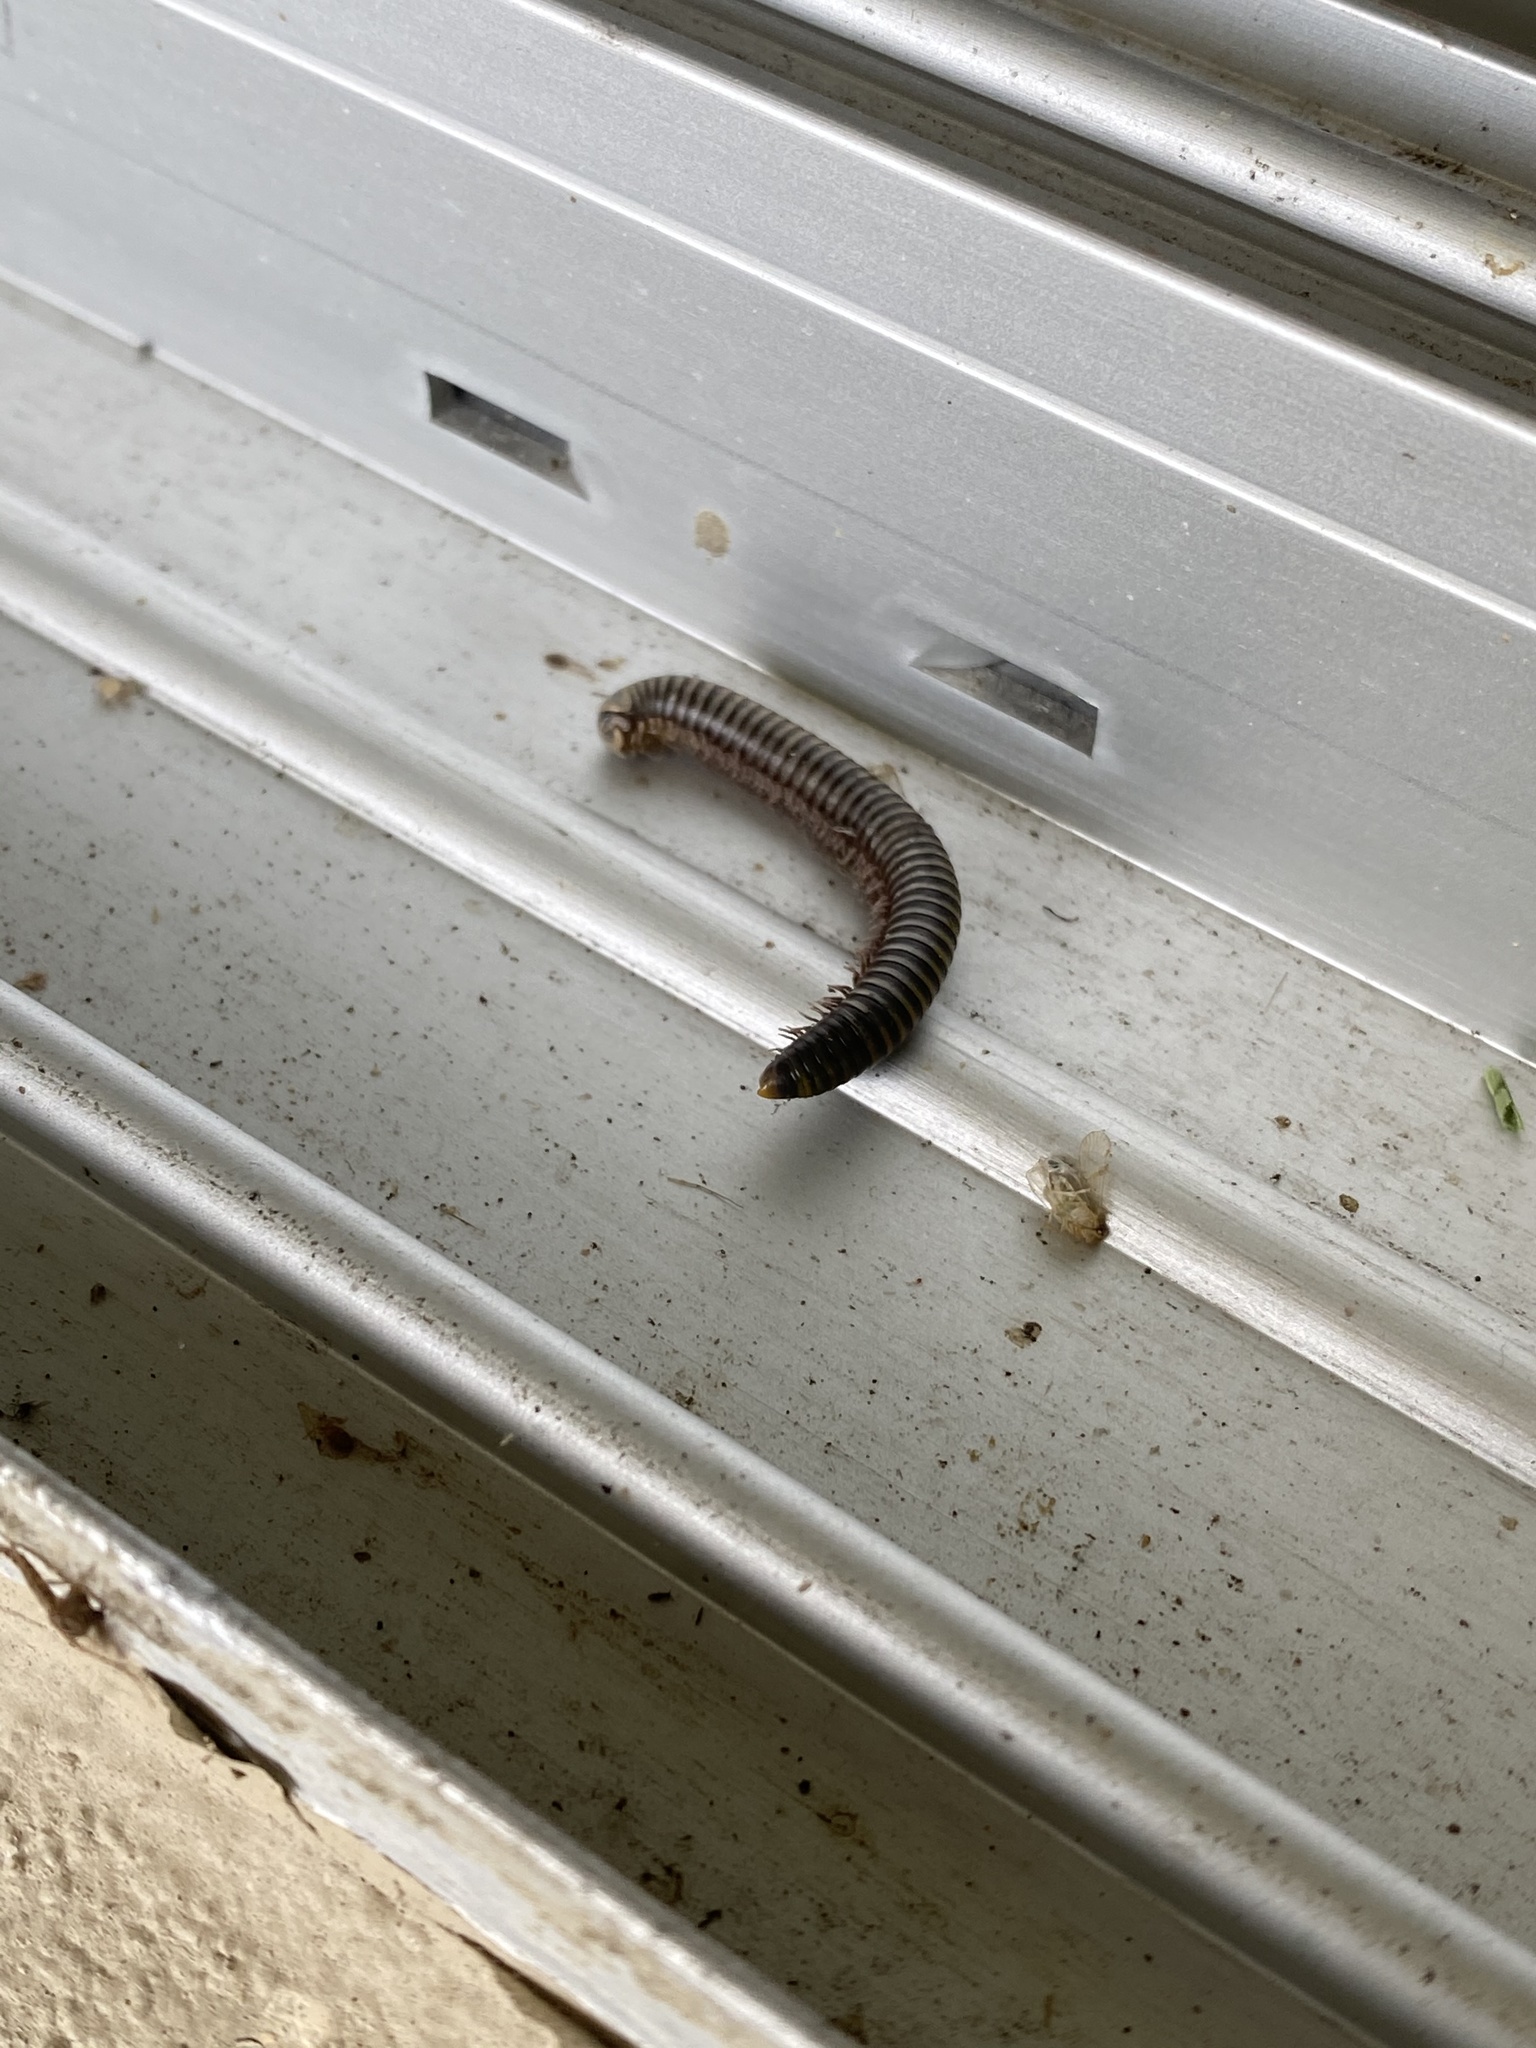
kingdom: Animalia
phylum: Arthropoda
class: Diplopoda
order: Spirobolida
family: Rhinocricidae
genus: Anadenobolus
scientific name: Anadenobolus monilicornis
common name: Caribbean millipede
